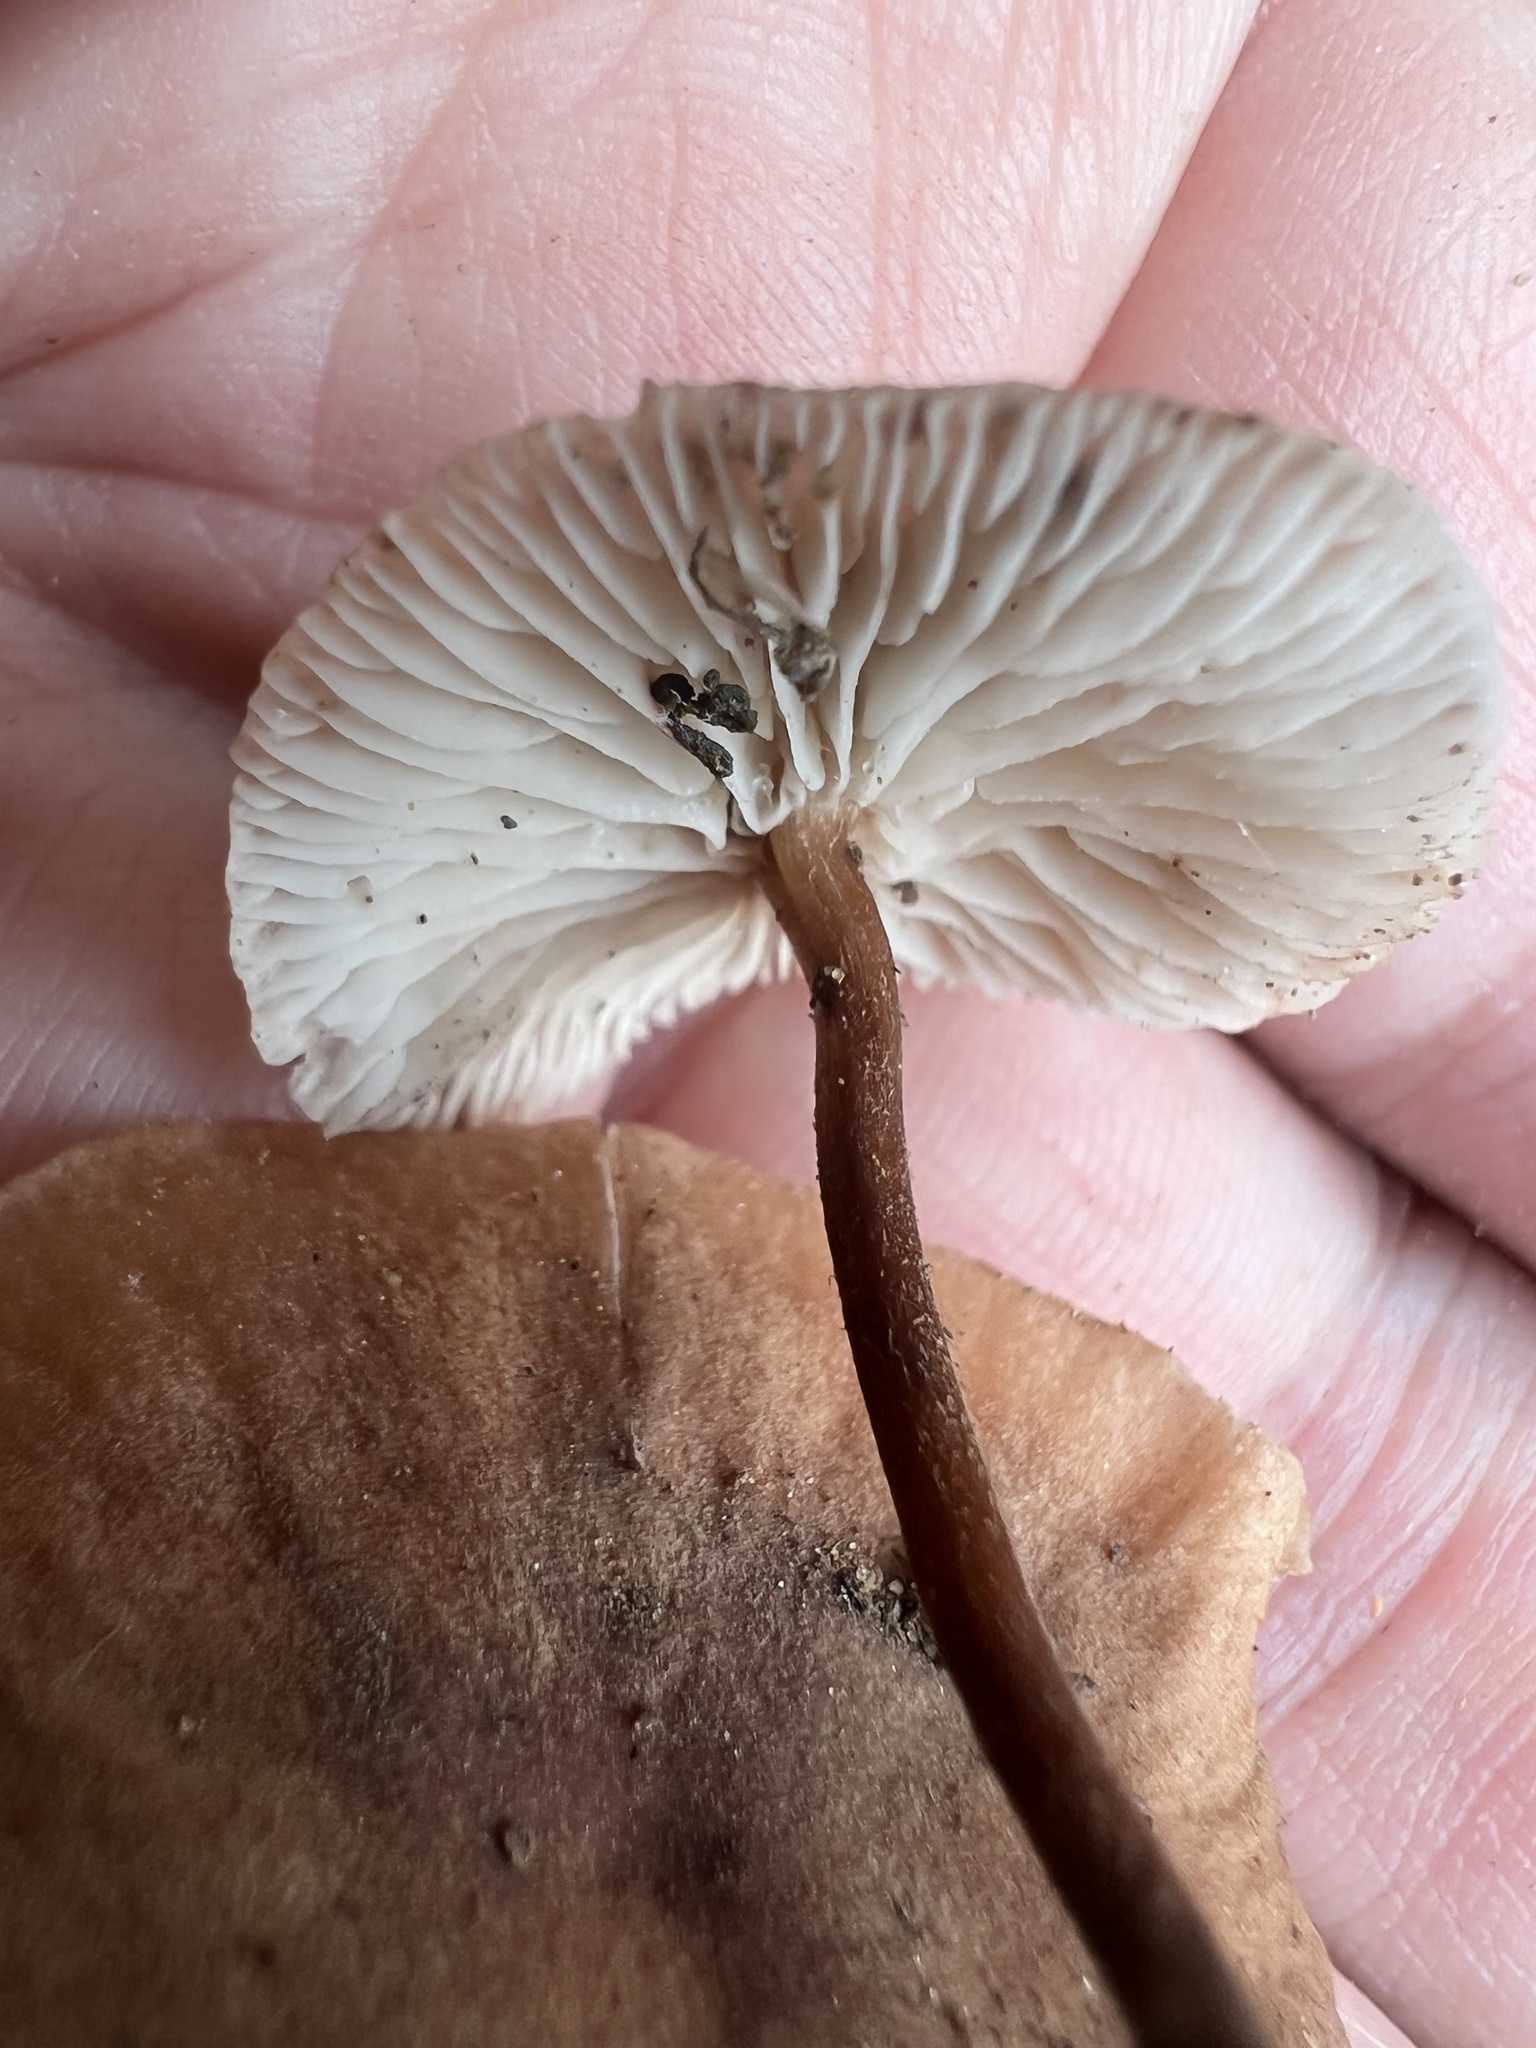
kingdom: Fungi
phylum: Basidiomycota
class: Agaricomycetes
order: Agaricales
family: Omphalotaceae
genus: Gymnopus
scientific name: Gymnopus dryophilus
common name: Penny top
